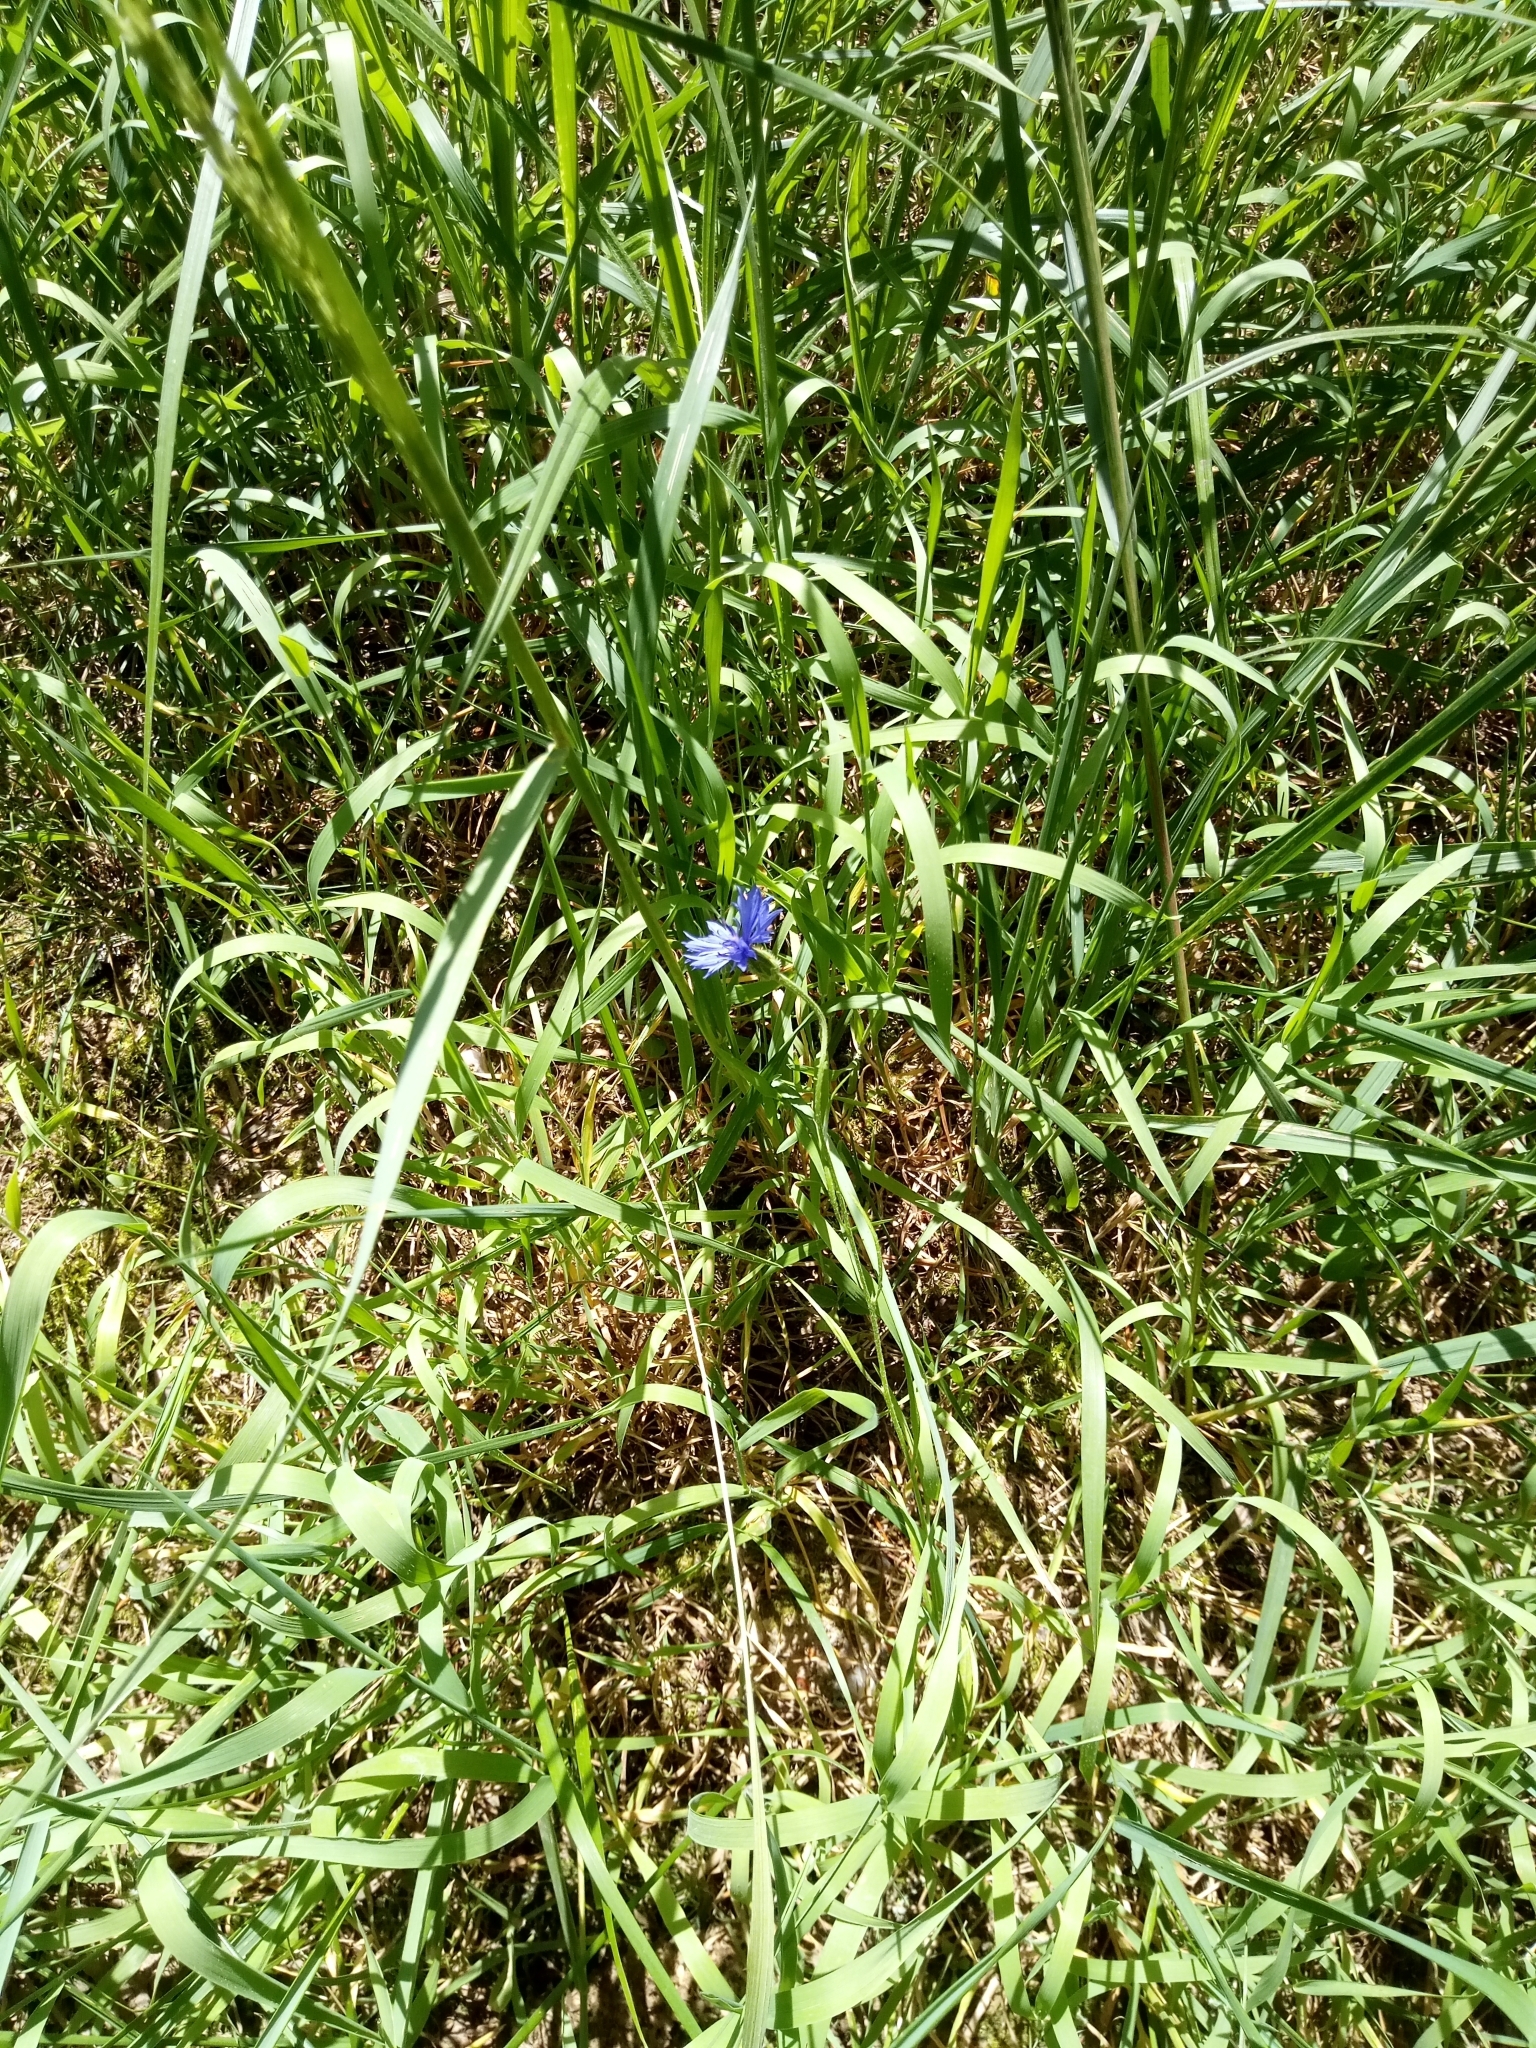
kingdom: Plantae
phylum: Tracheophyta
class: Magnoliopsida
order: Asterales
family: Asteraceae
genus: Centaurea
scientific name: Centaurea cyanus
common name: Cornflower
